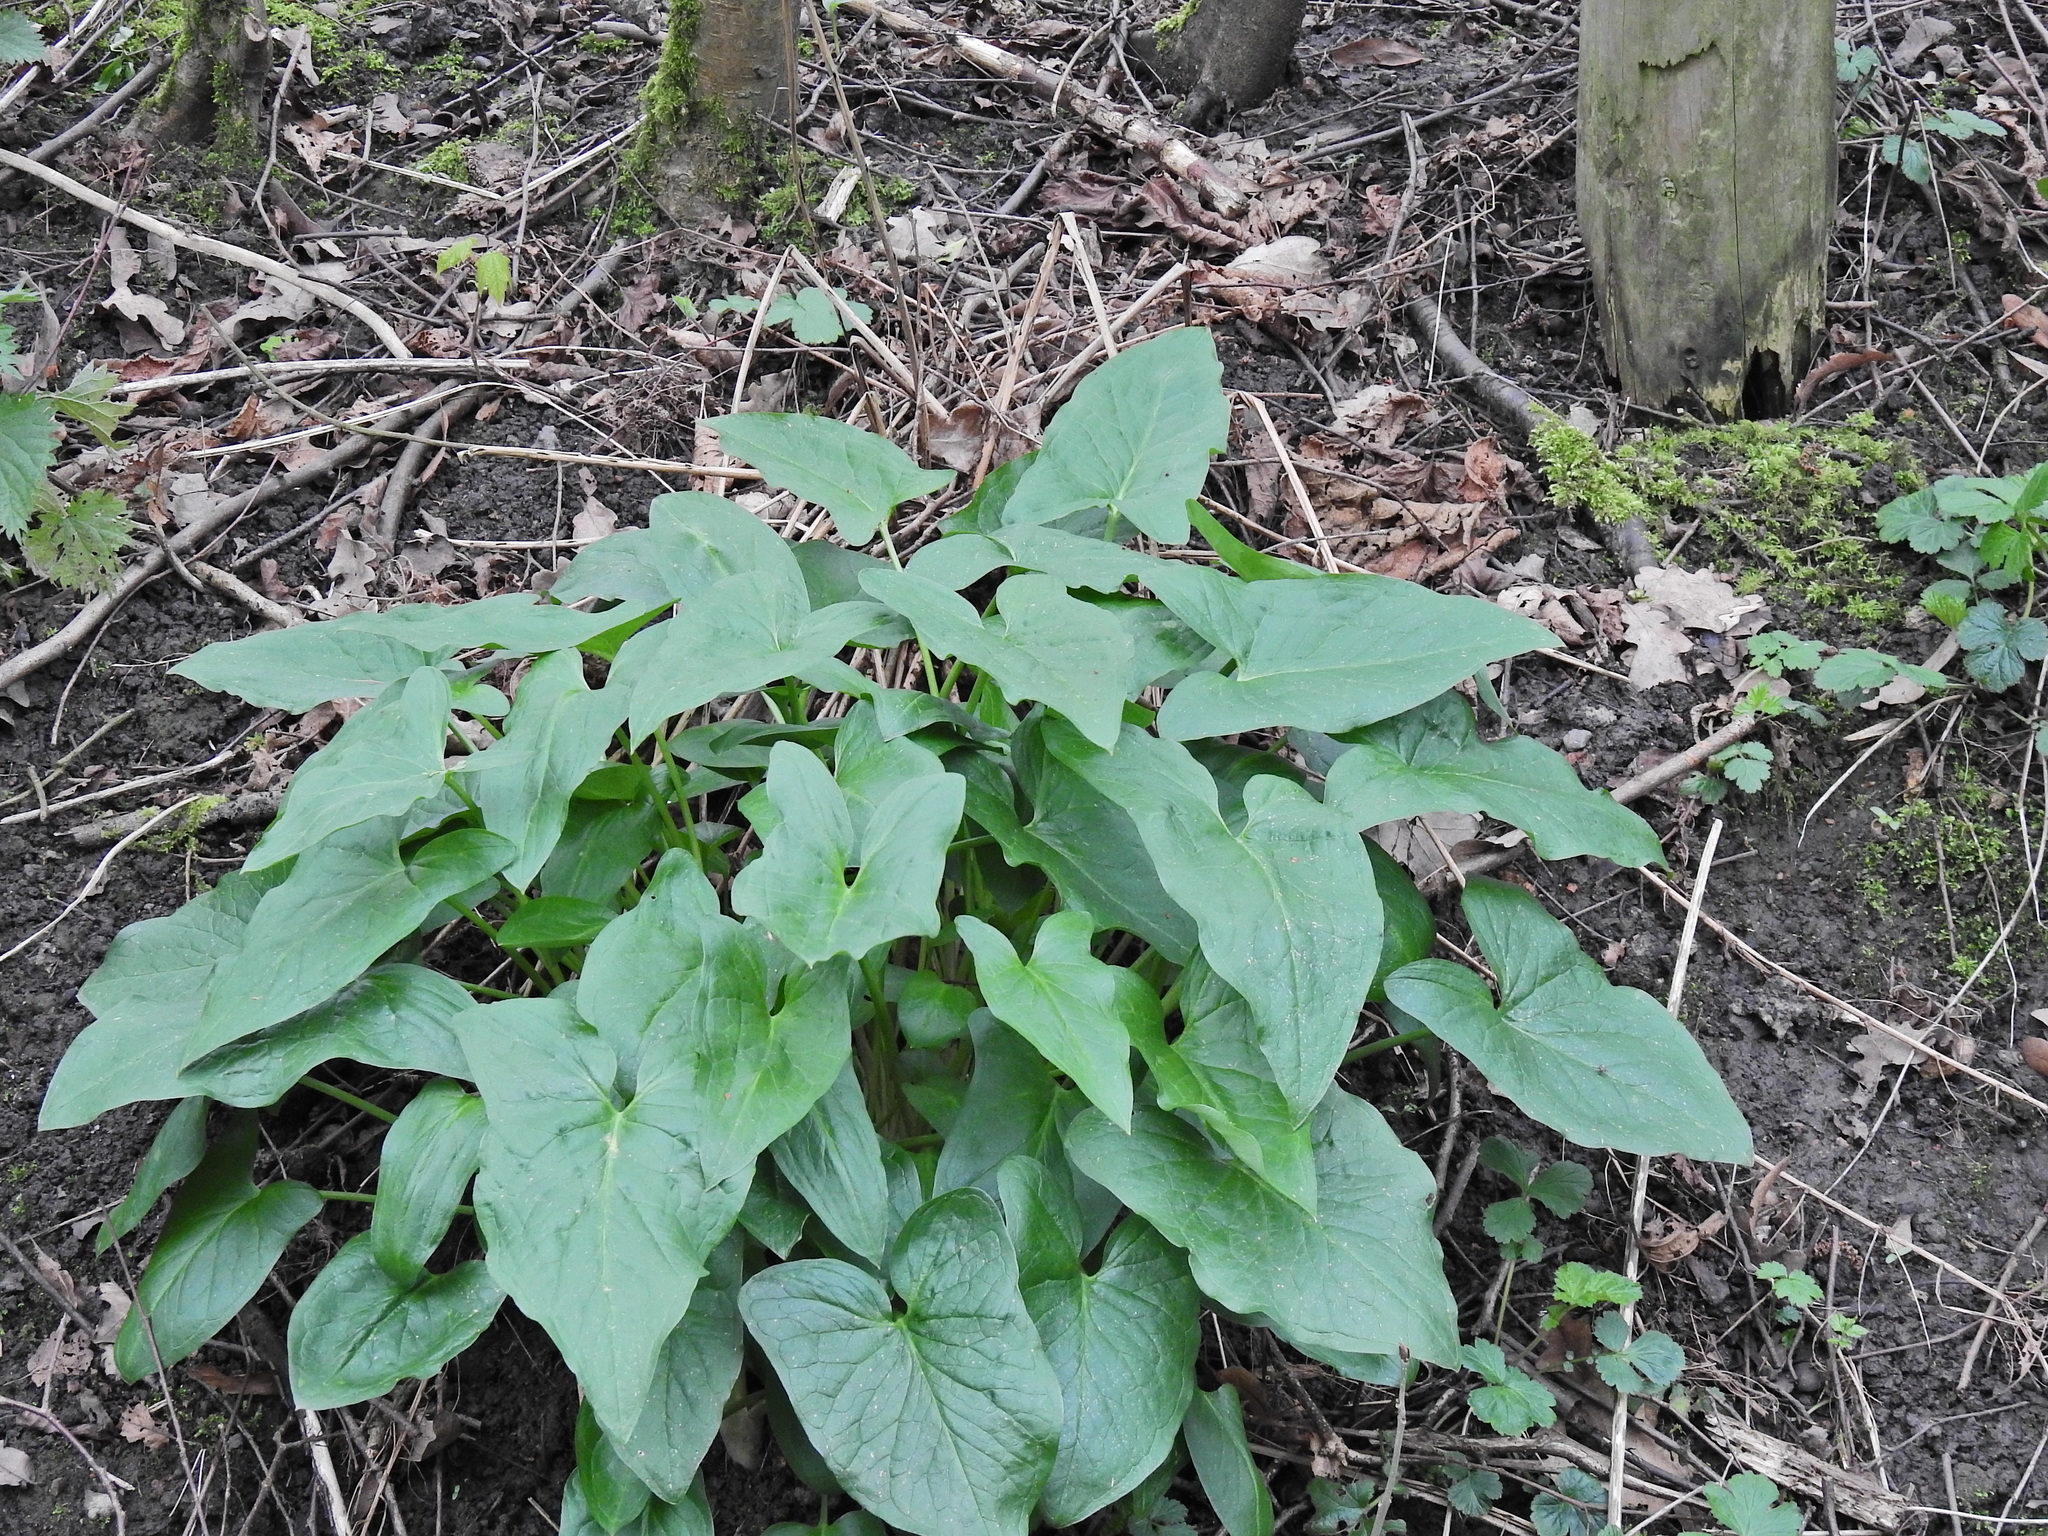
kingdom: Plantae
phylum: Tracheophyta
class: Liliopsida
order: Alismatales
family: Araceae
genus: Arum
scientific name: Arum maculatum
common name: Lords-and-ladies
